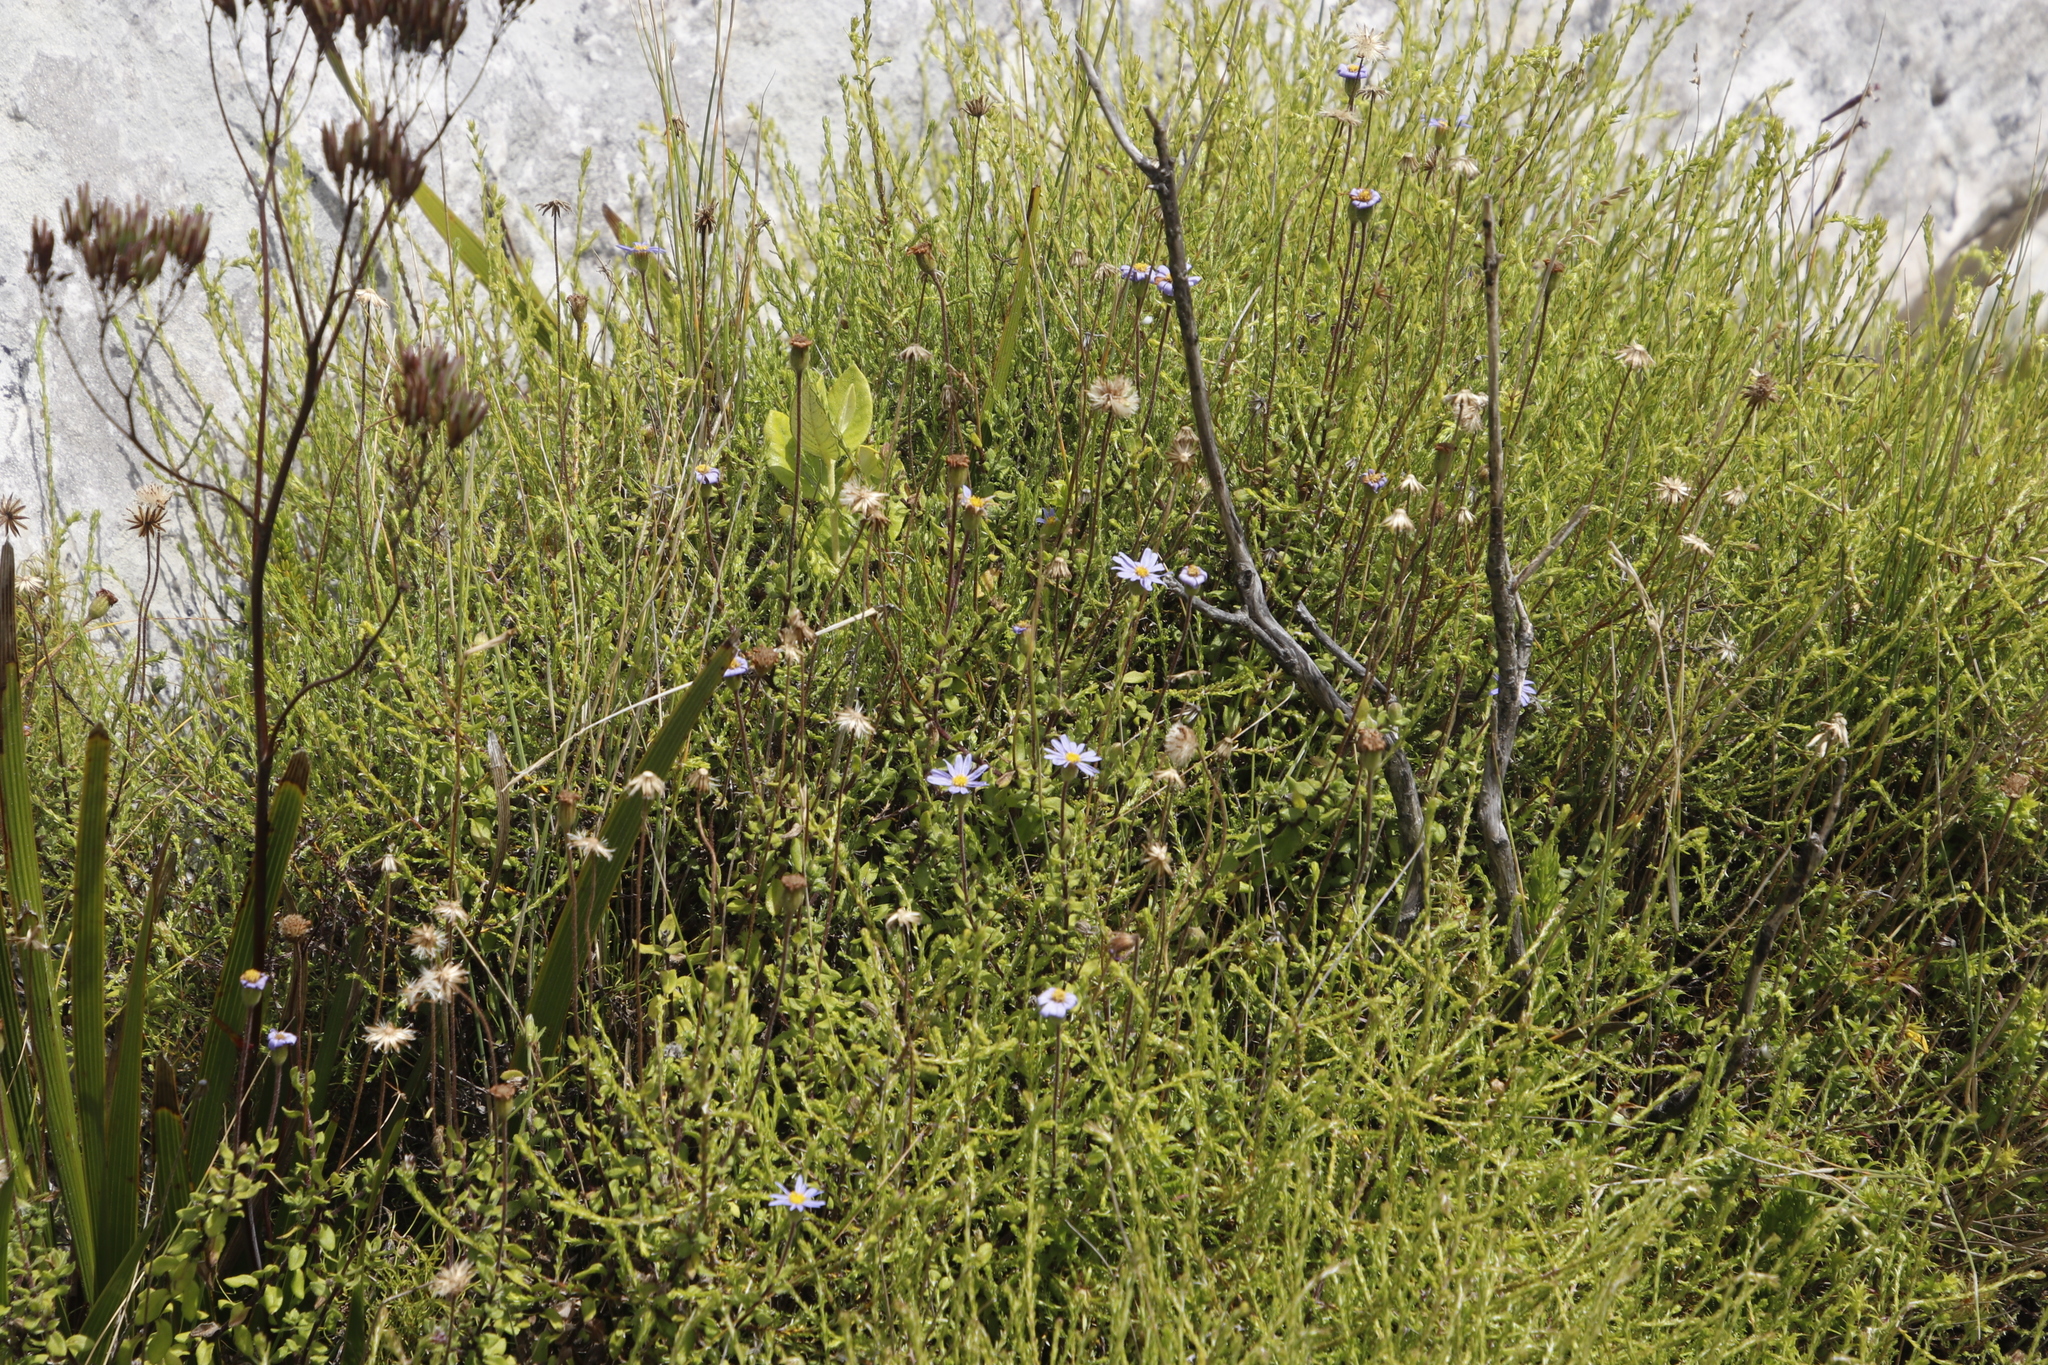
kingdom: Plantae
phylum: Tracheophyta
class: Magnoliopsida
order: Asterales
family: Asteraceae
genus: Felicia
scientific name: Felicia aethiopica
